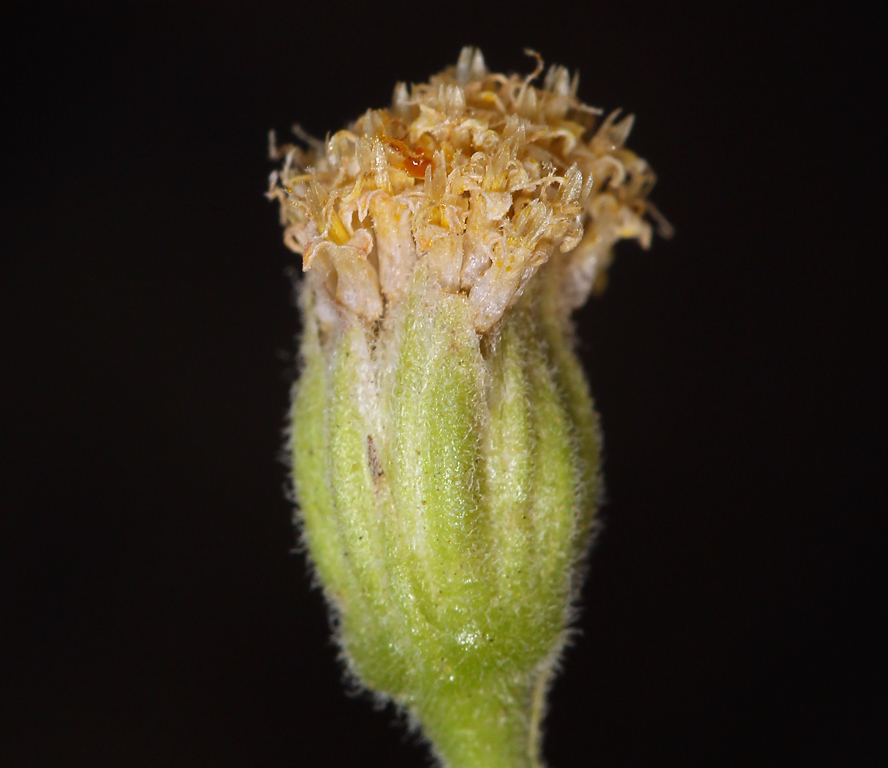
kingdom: Plantae
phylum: Tracheophyta
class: Magnoliopsida
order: Asterales
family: Asteraceae
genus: Laphamia
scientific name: Laphamia megalocephala
